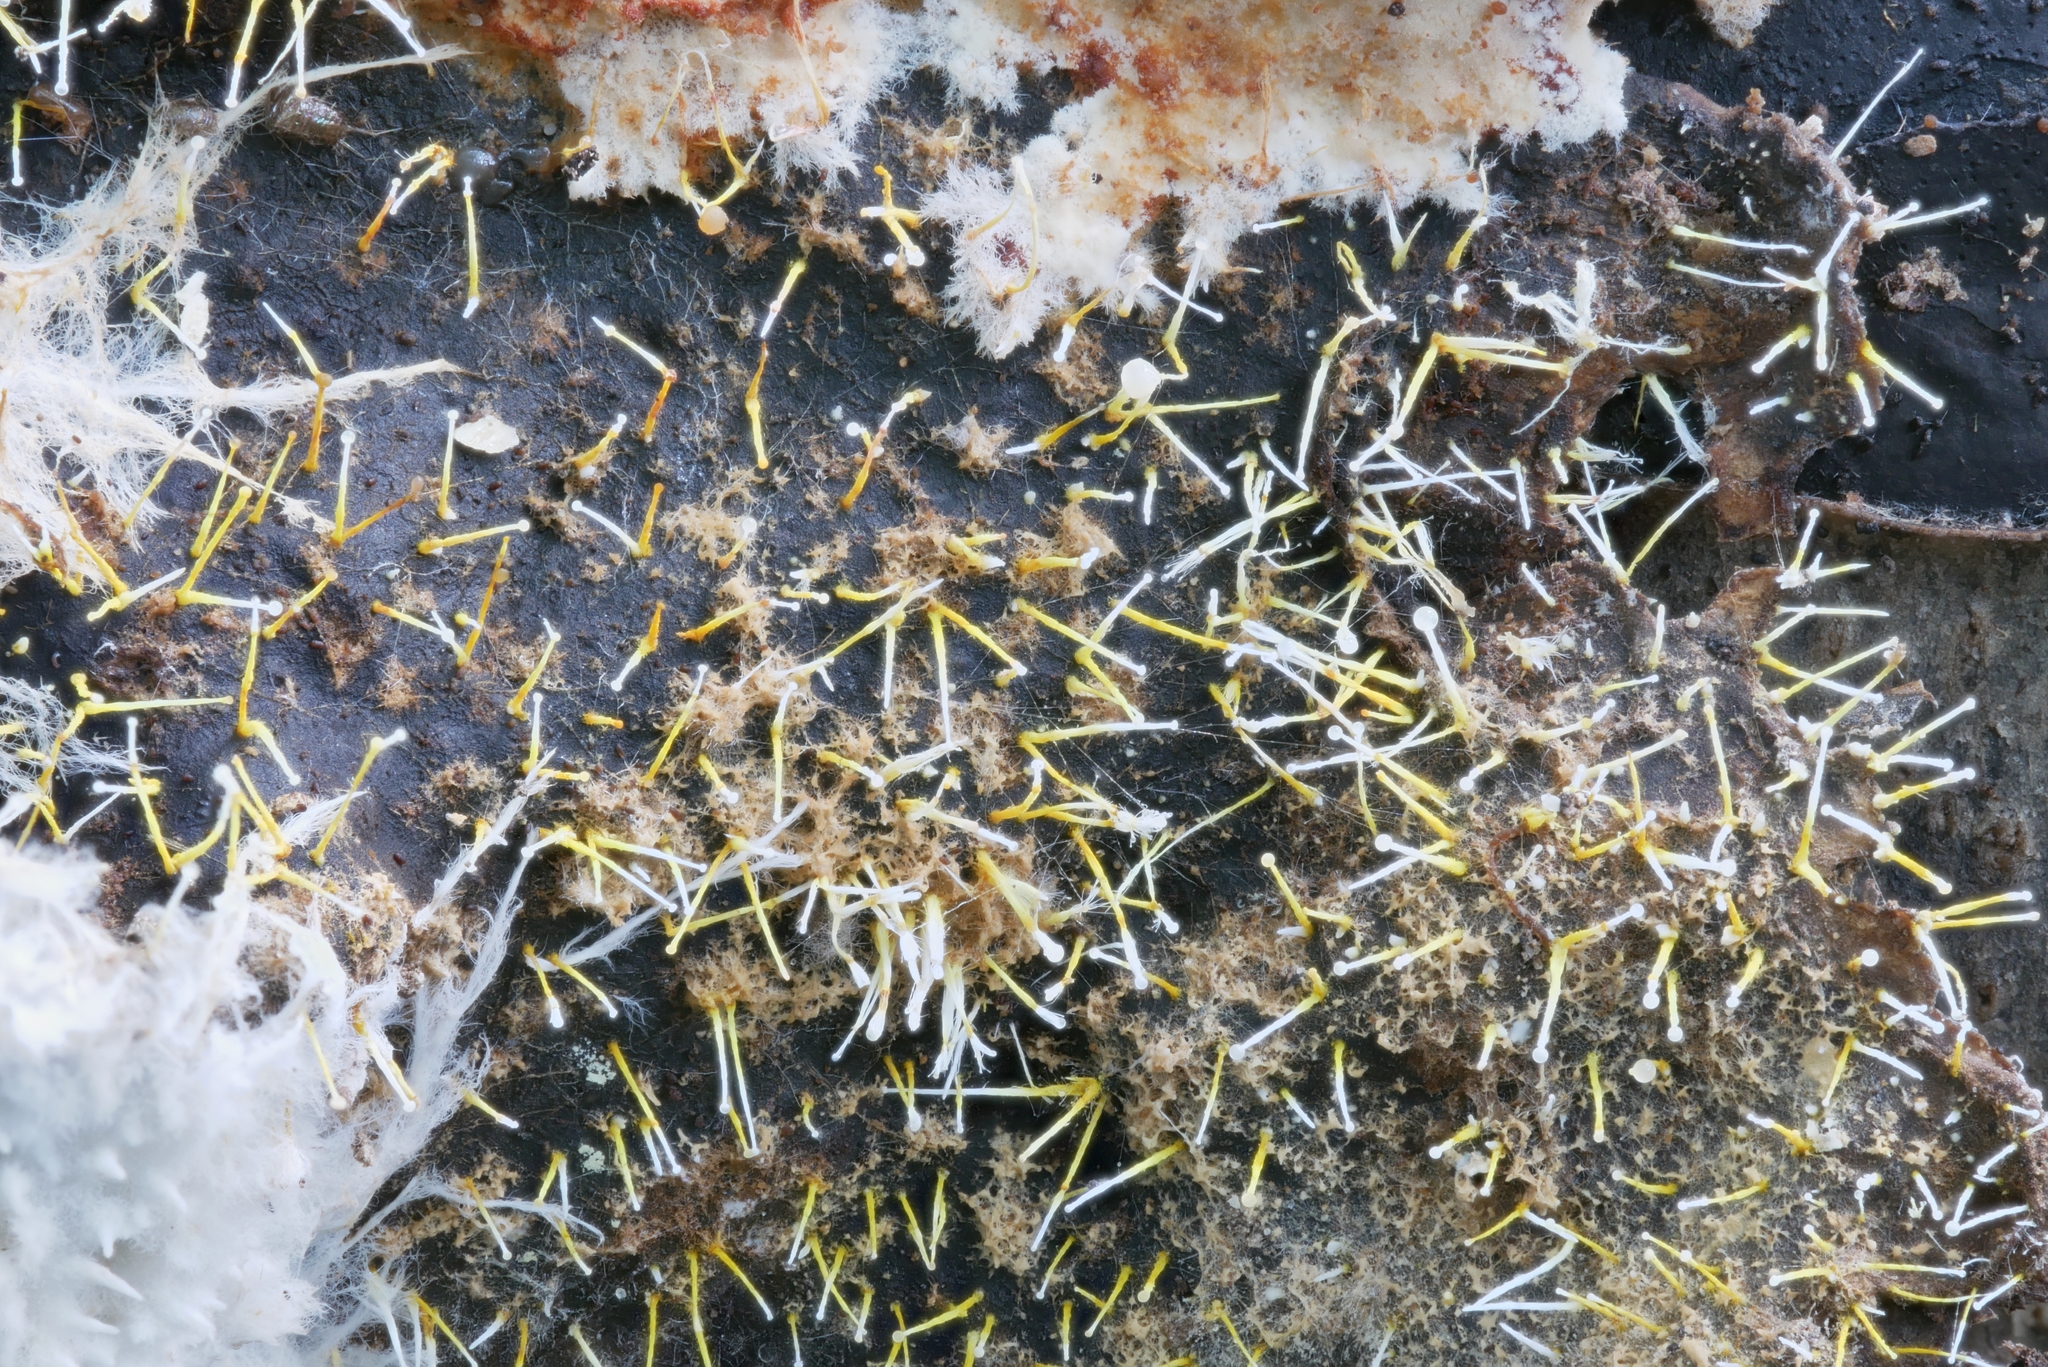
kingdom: Fungi
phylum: Ascomycota
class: Sordariomycetes
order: Hypocreales
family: Hypocreaceae
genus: Gliocladium
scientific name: Gliocladium polyporicola
